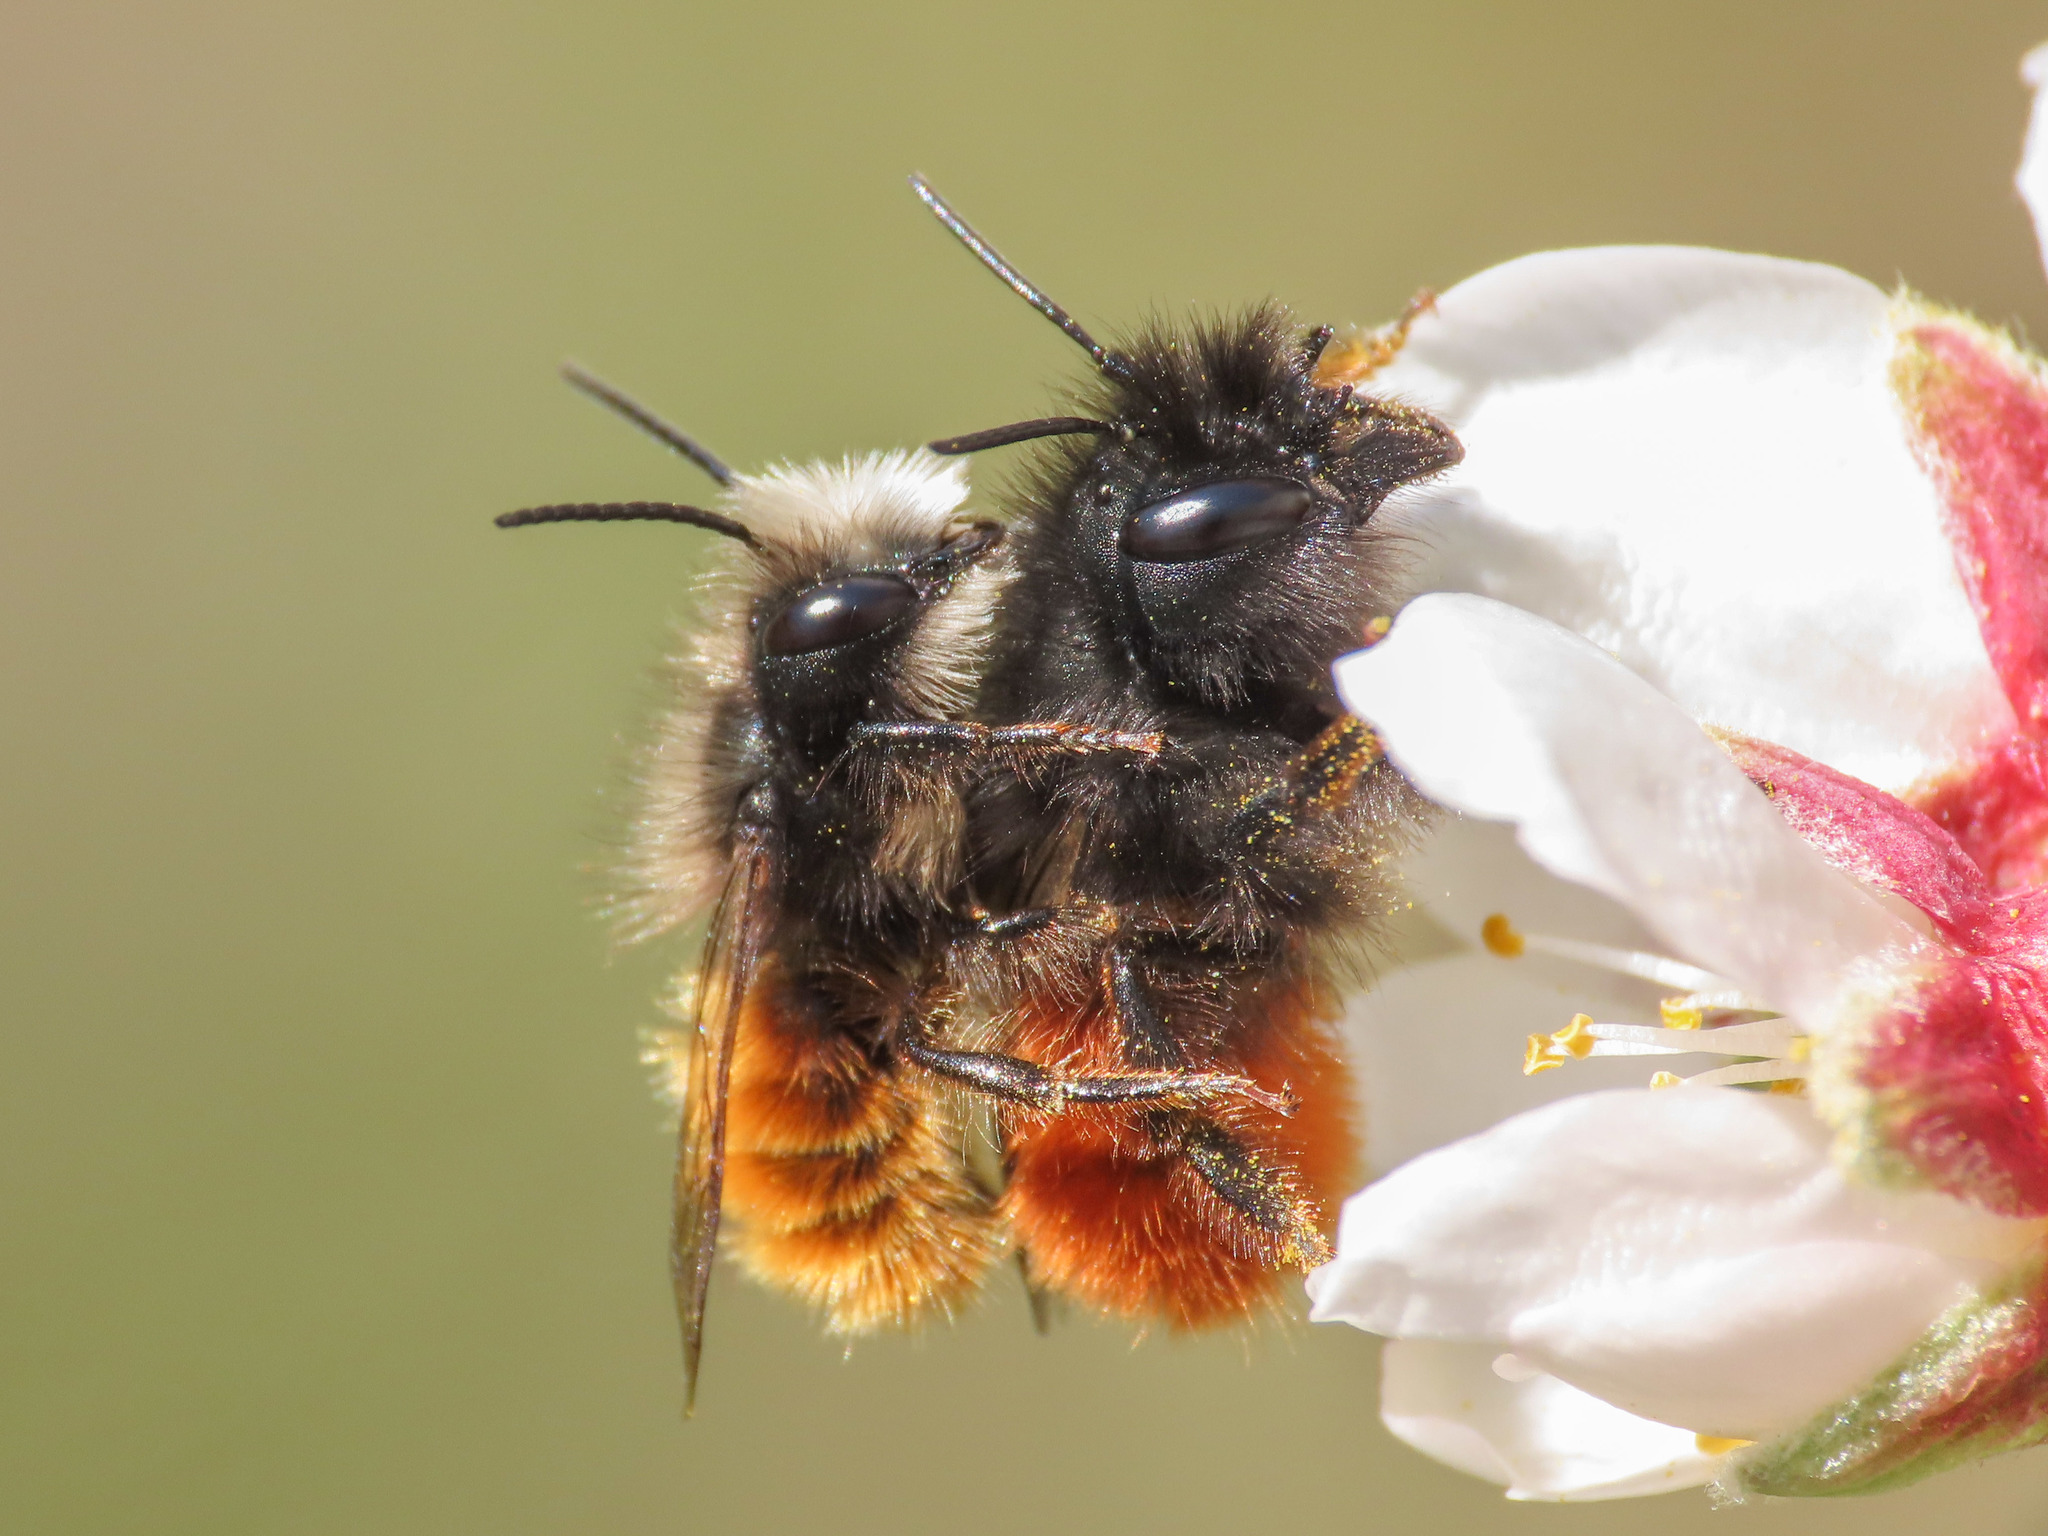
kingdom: Animalia
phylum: Arthropoda
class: Insecta
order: Hymenoptera
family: Megachilidae
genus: Osmia
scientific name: Osmia cornuta
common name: Mason bee
